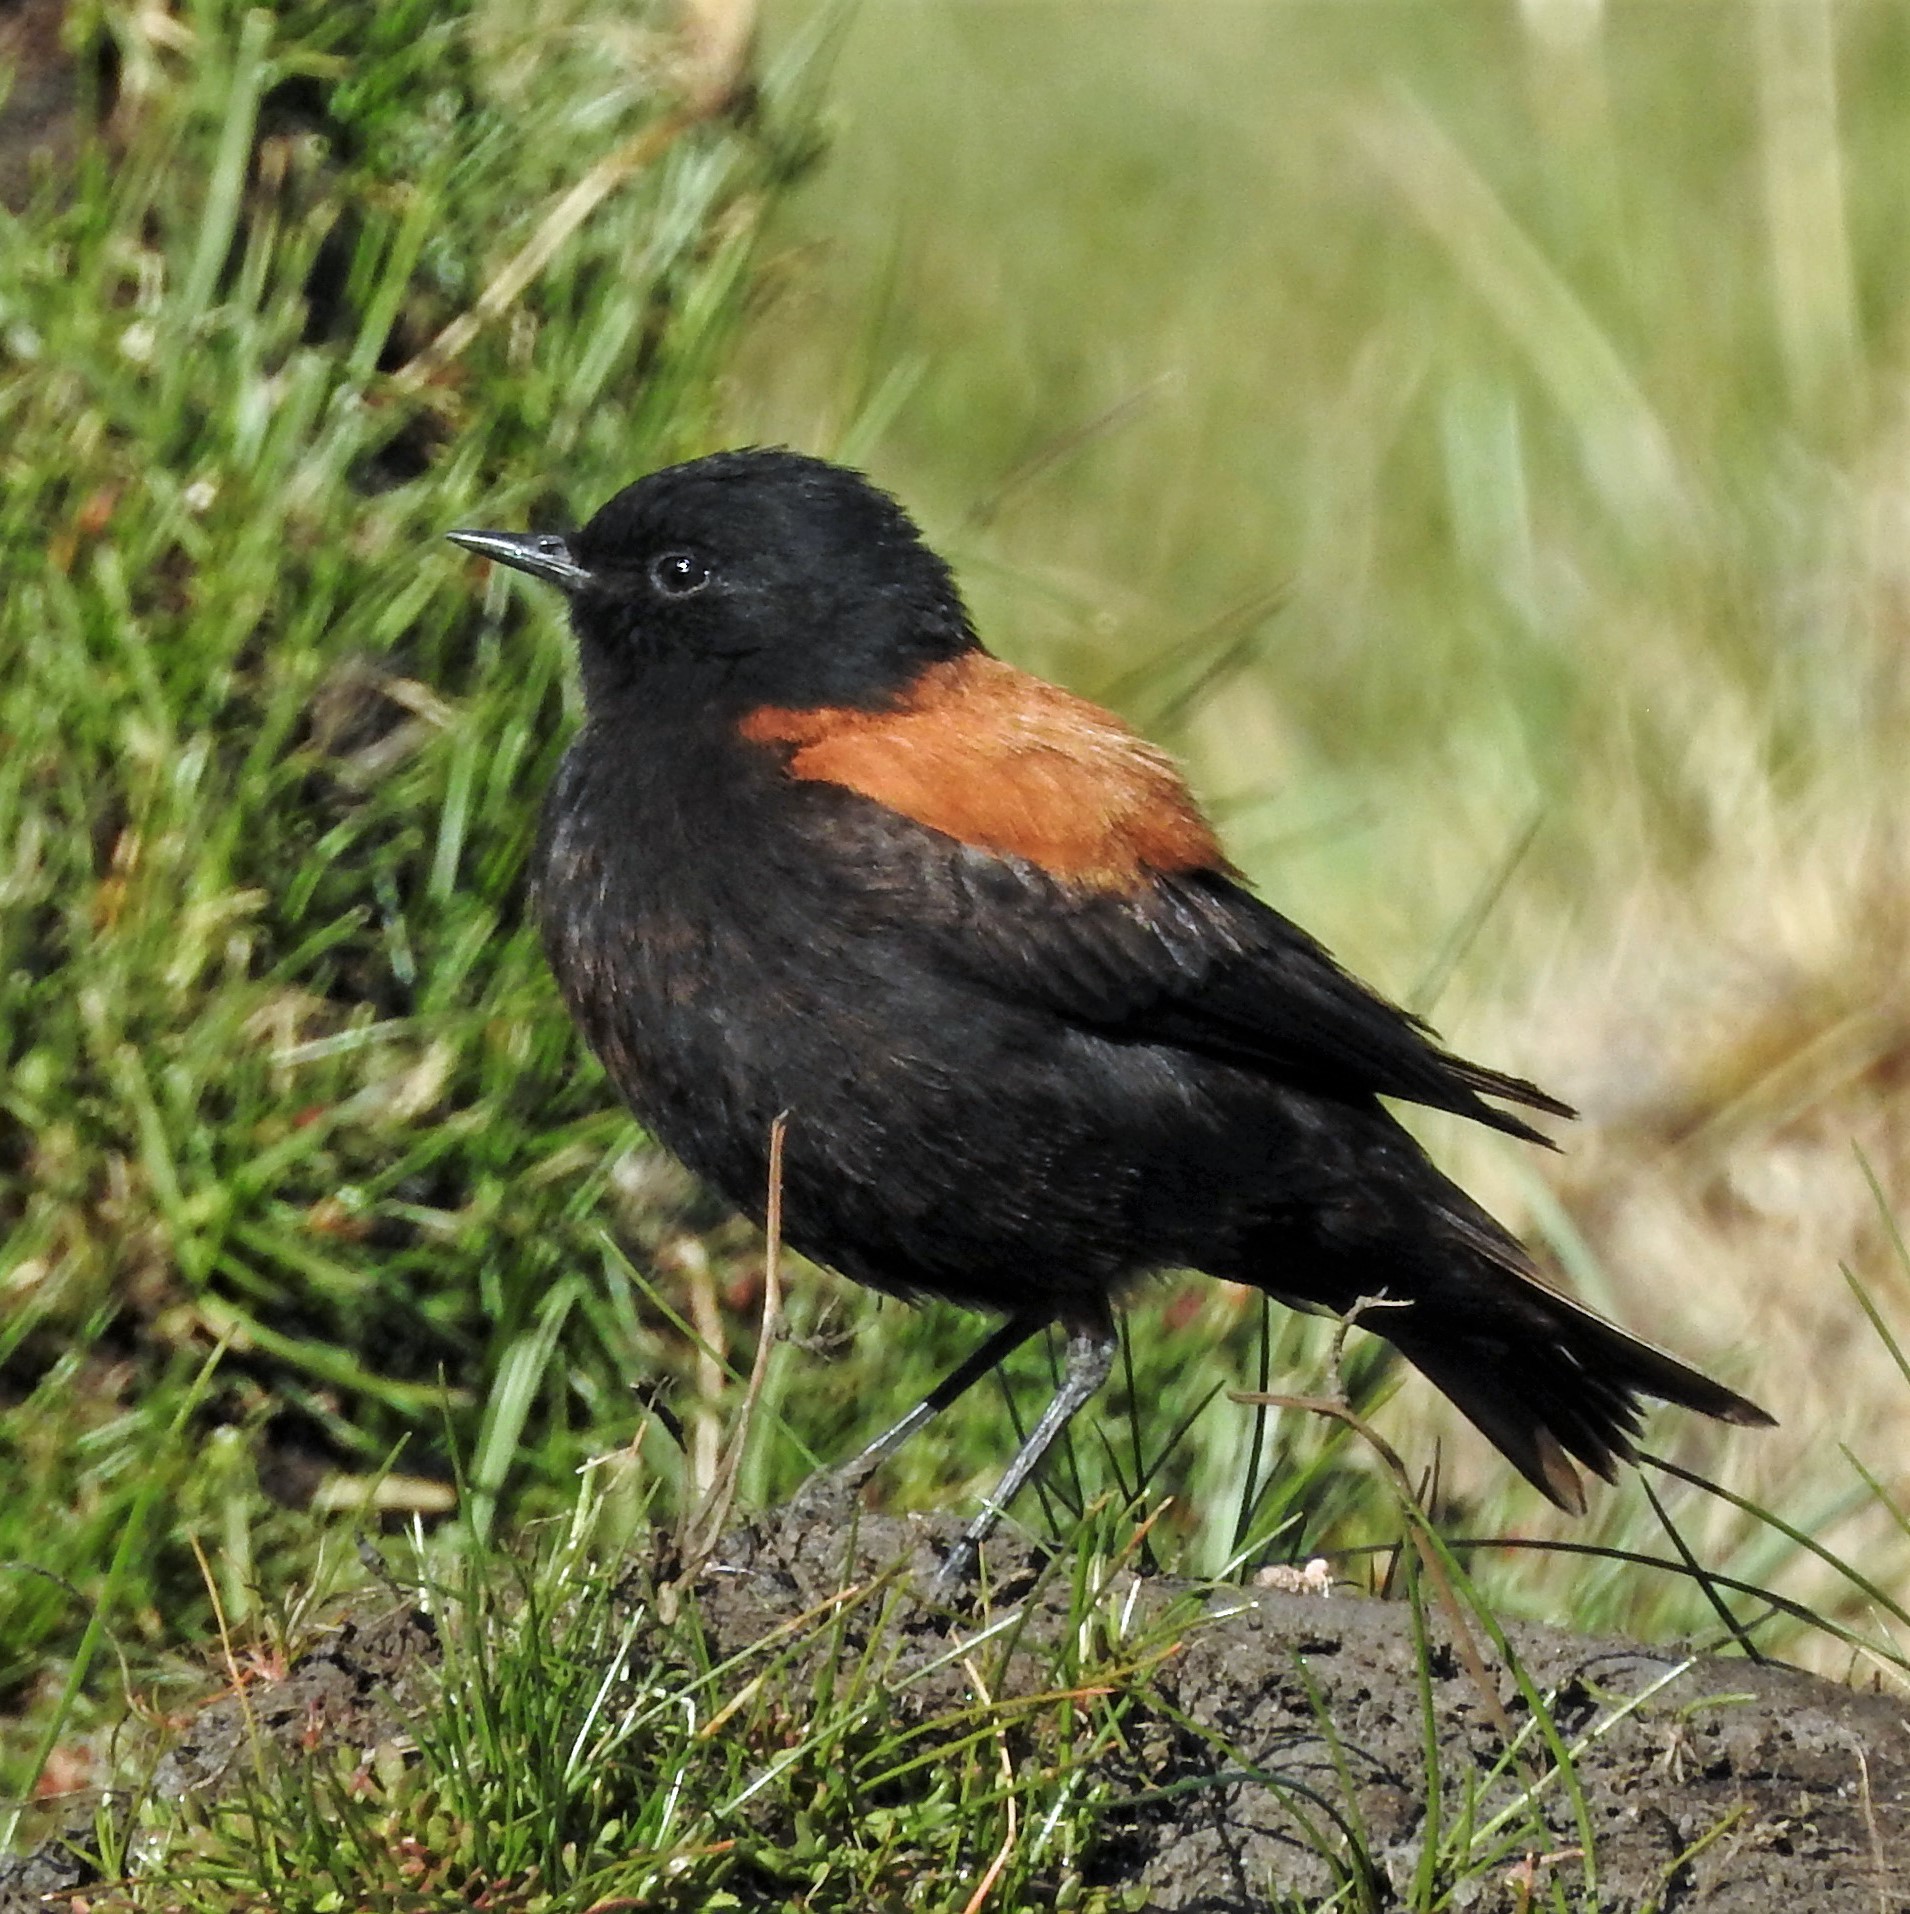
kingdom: Animalia
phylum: Chordata
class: Aves
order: Passeriformes
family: Tyrannidae
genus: Lessonia
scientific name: Lessonia rufa
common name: Austral negrito
